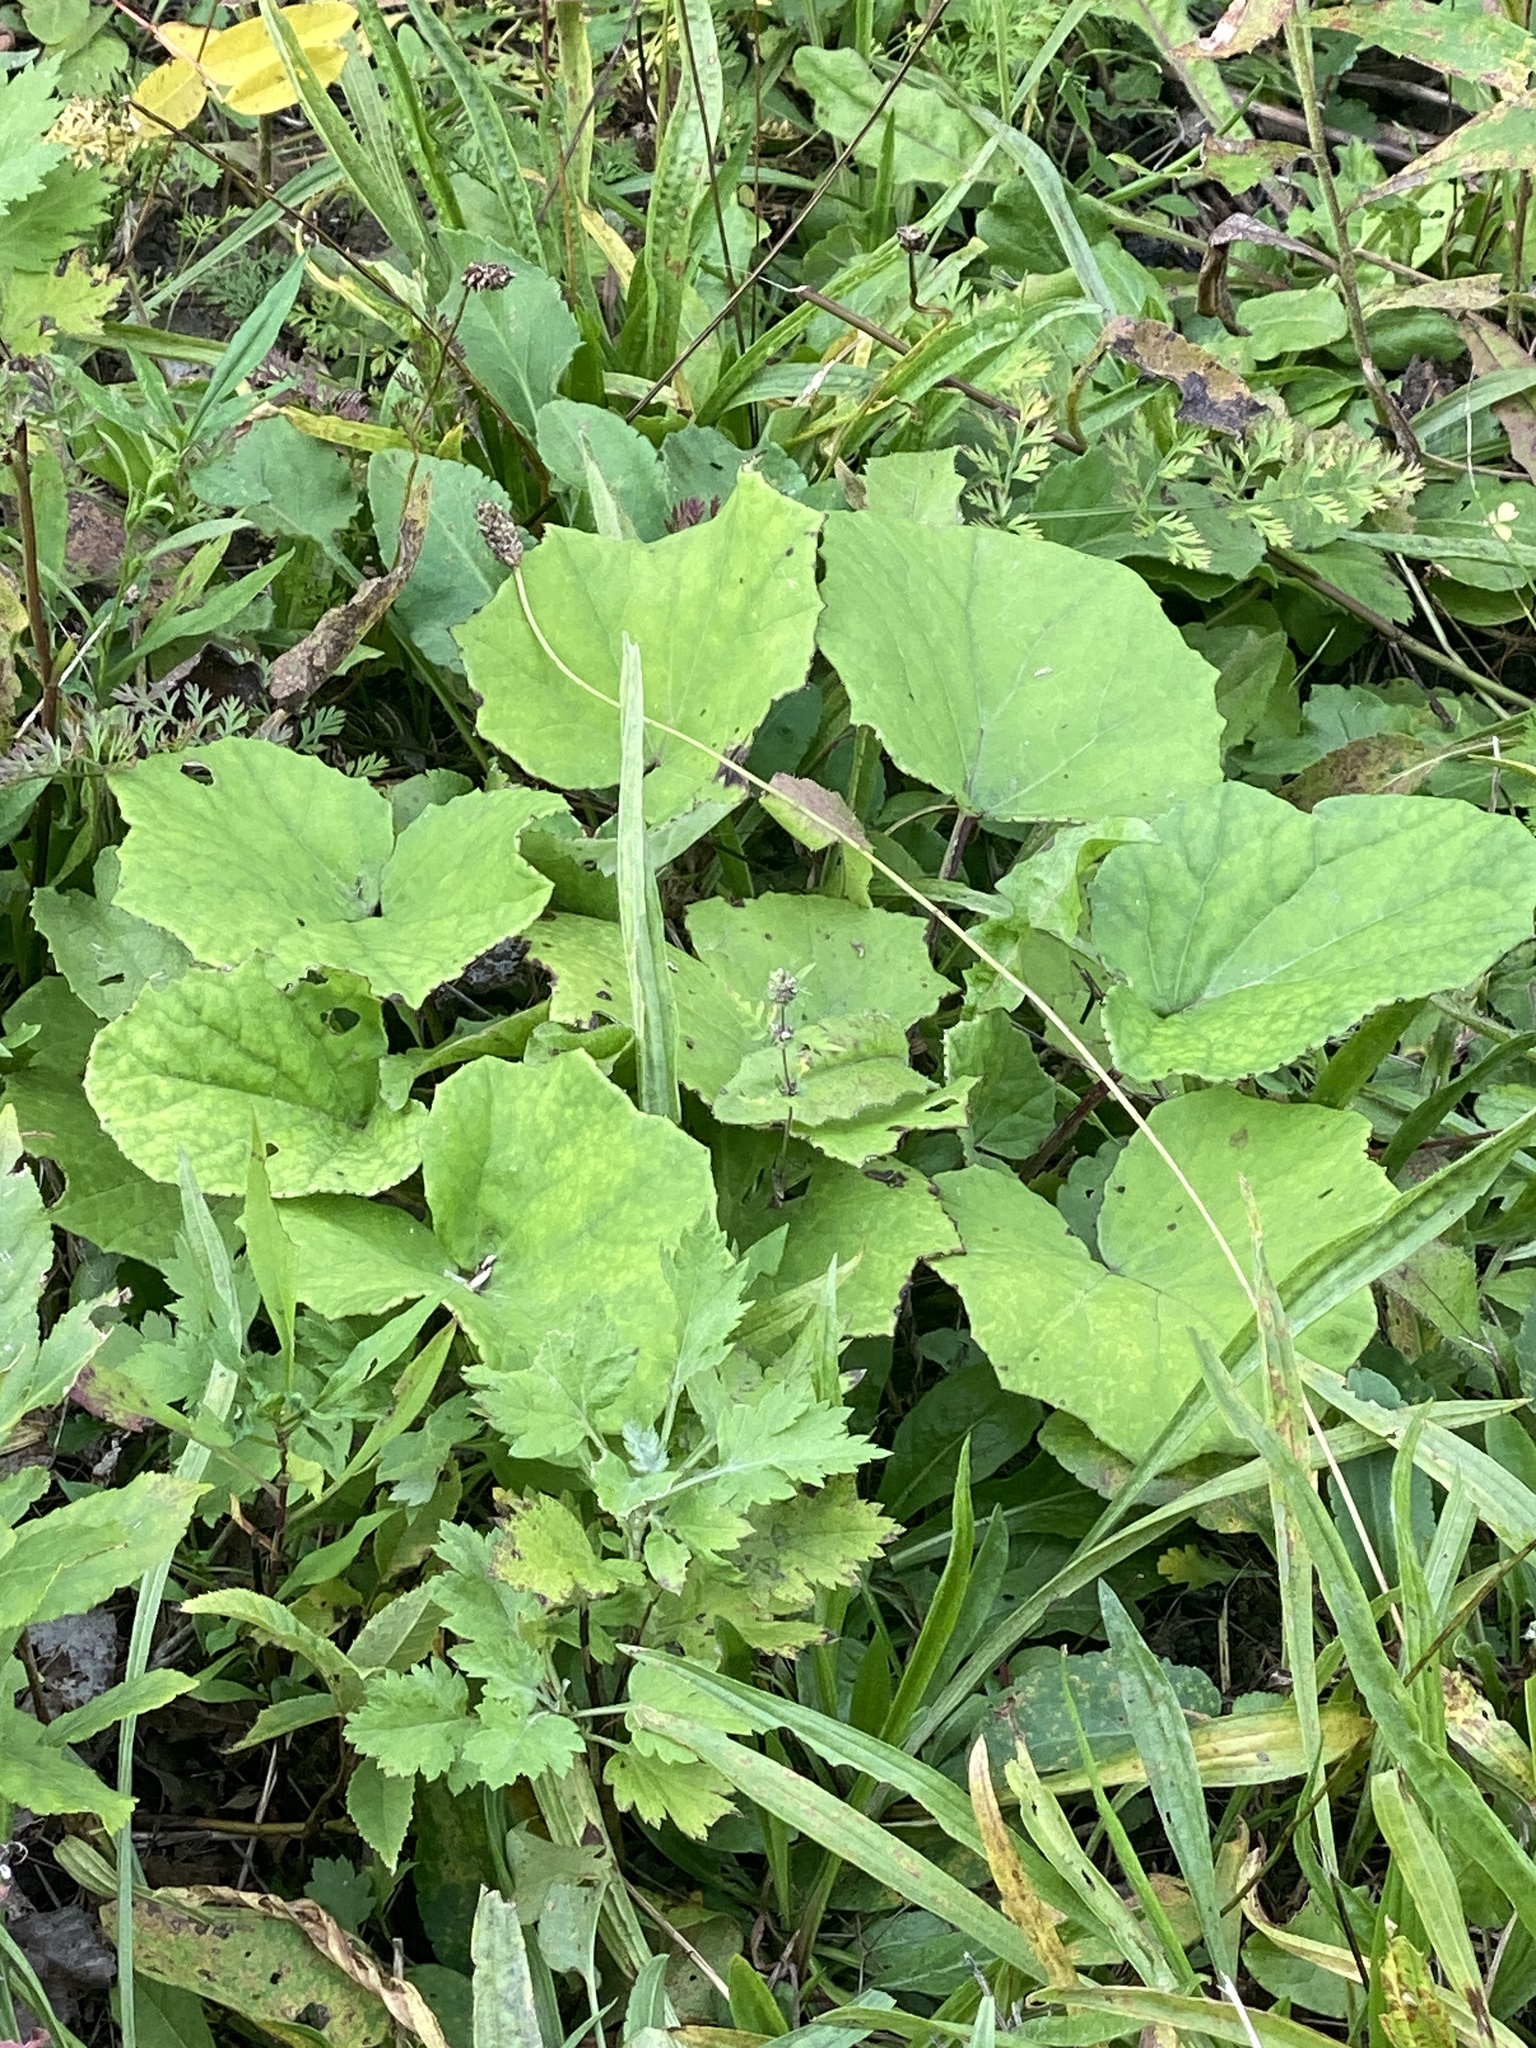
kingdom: Plantae
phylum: Tracheophyta
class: Magnoliopsida
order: Asterales
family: Asteraceae
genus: Tussilago
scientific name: Tussilago farfara
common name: Coltsfoot
